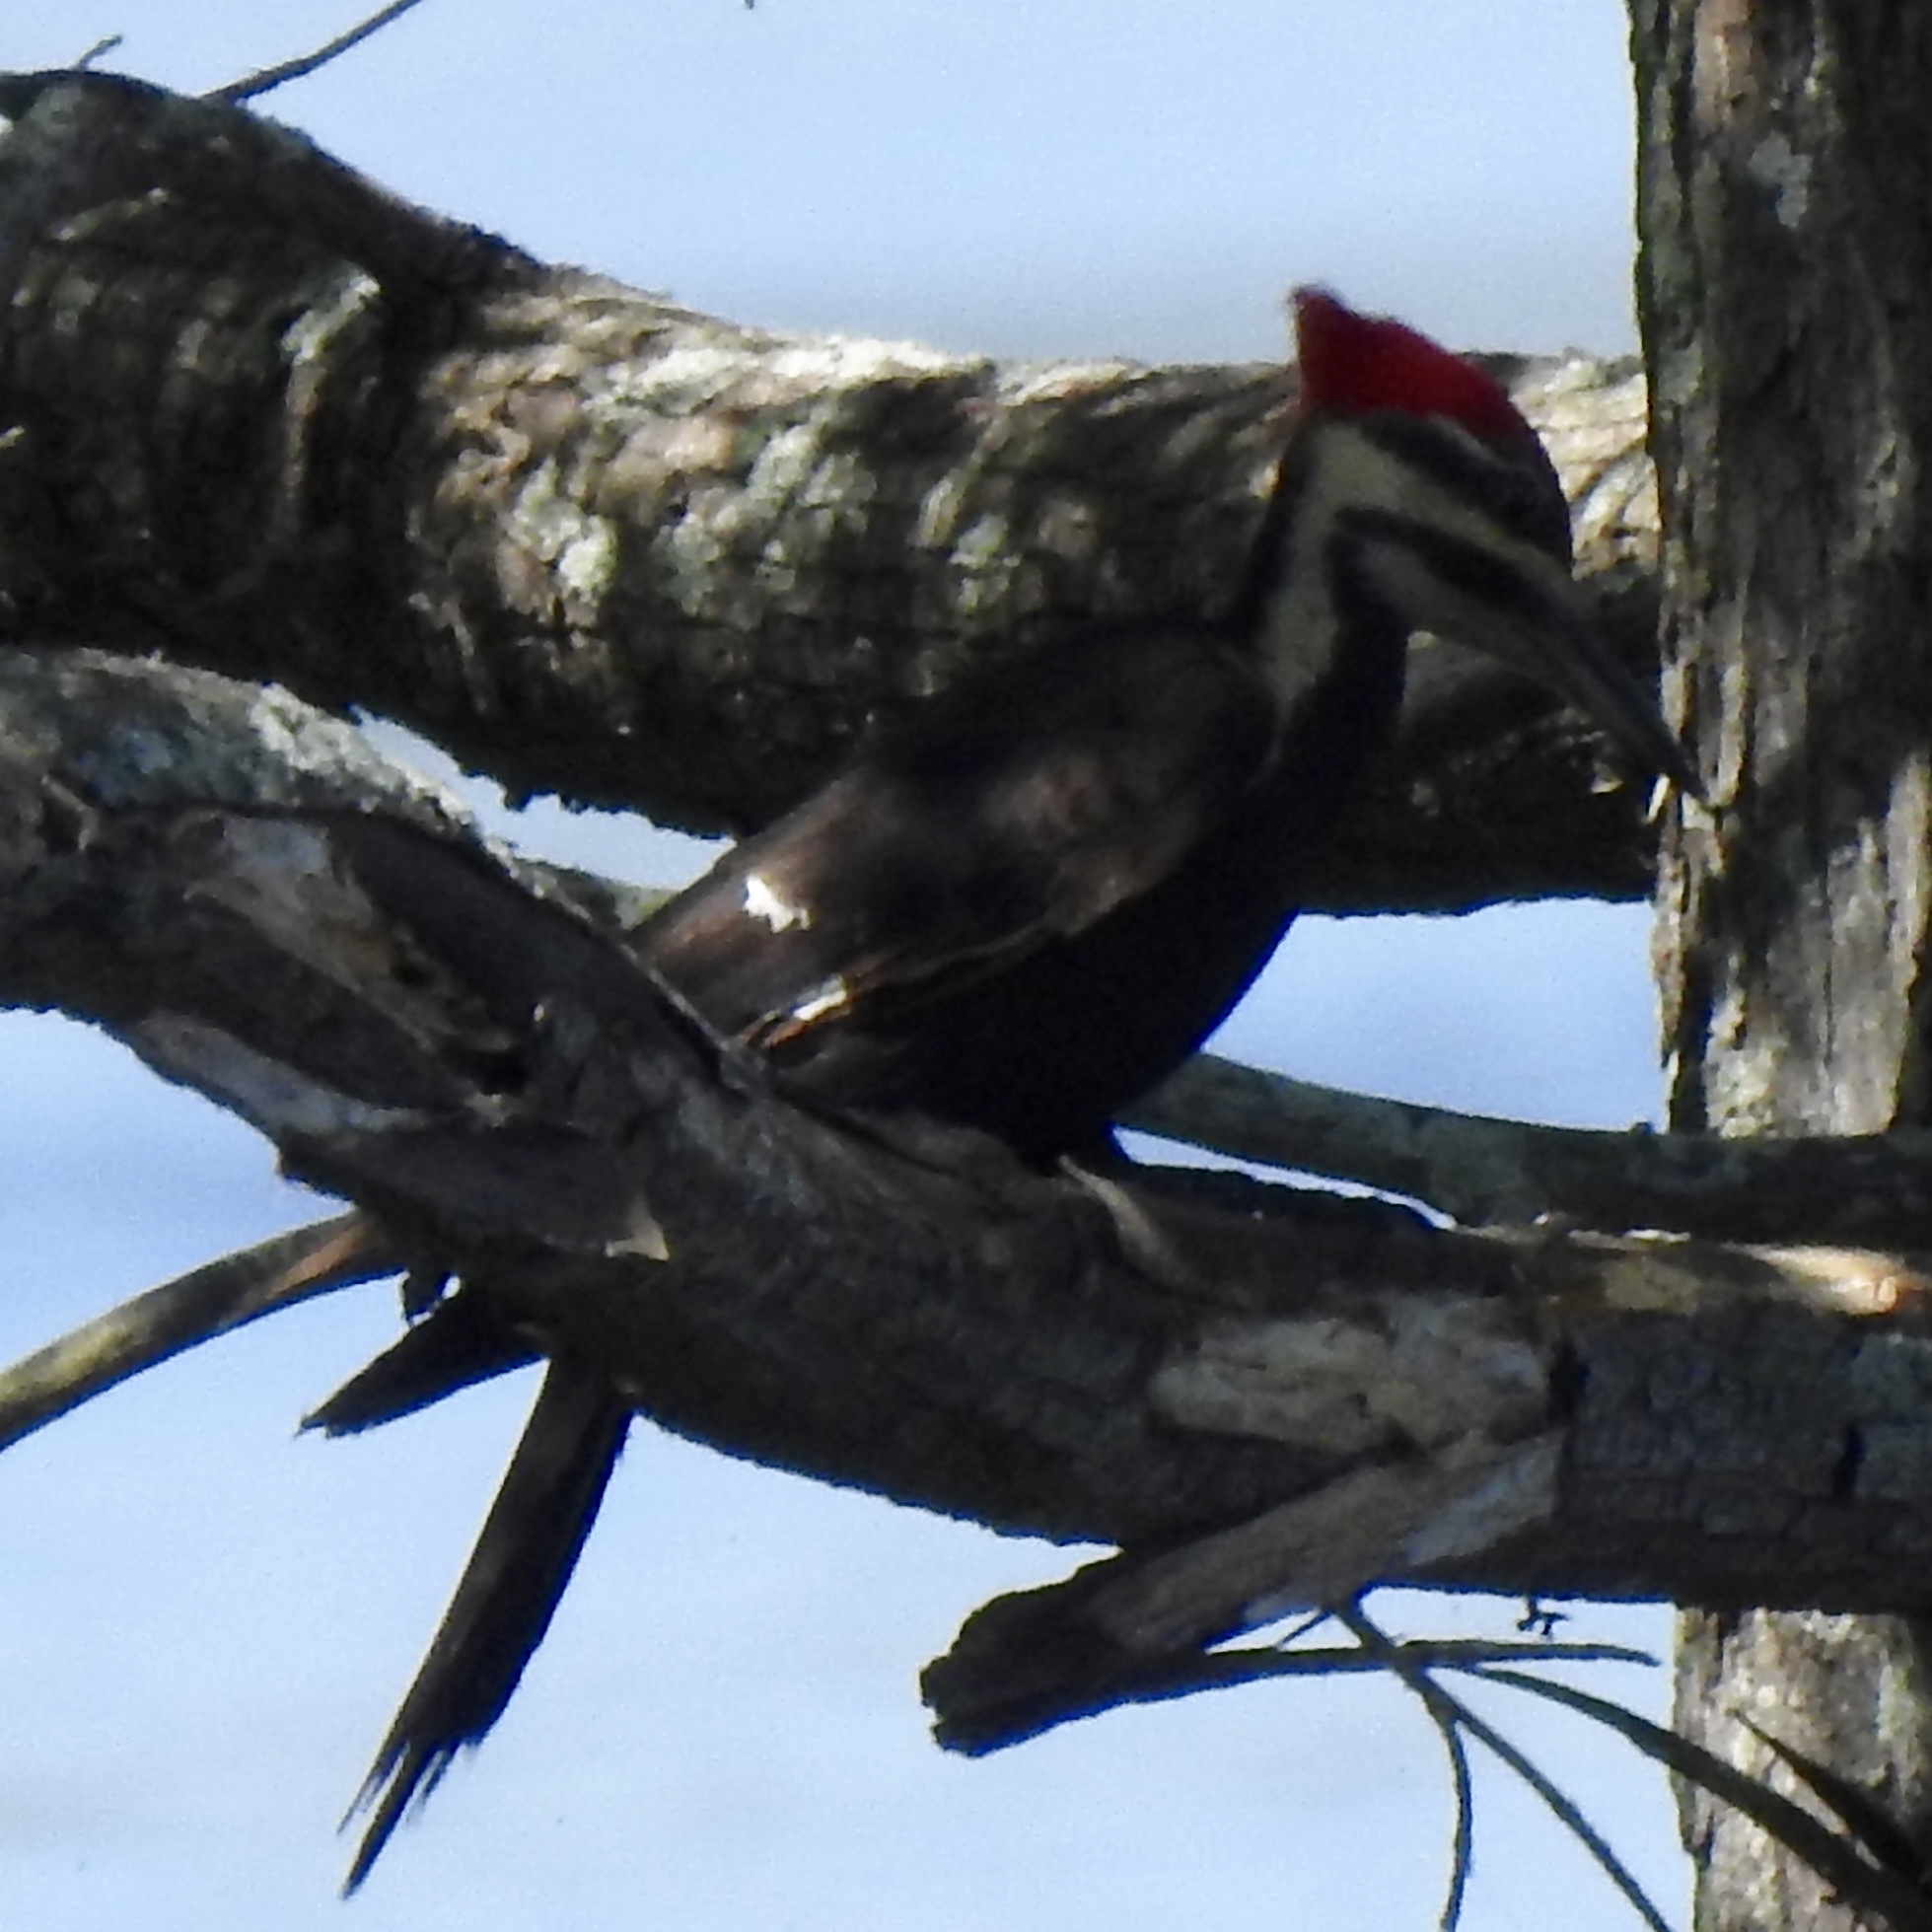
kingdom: Animalia
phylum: Chordata
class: Aves
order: Piciformes
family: Picidae
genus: Dryocopus
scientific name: Dryocopus pileatus
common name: Pileated woodpecker
